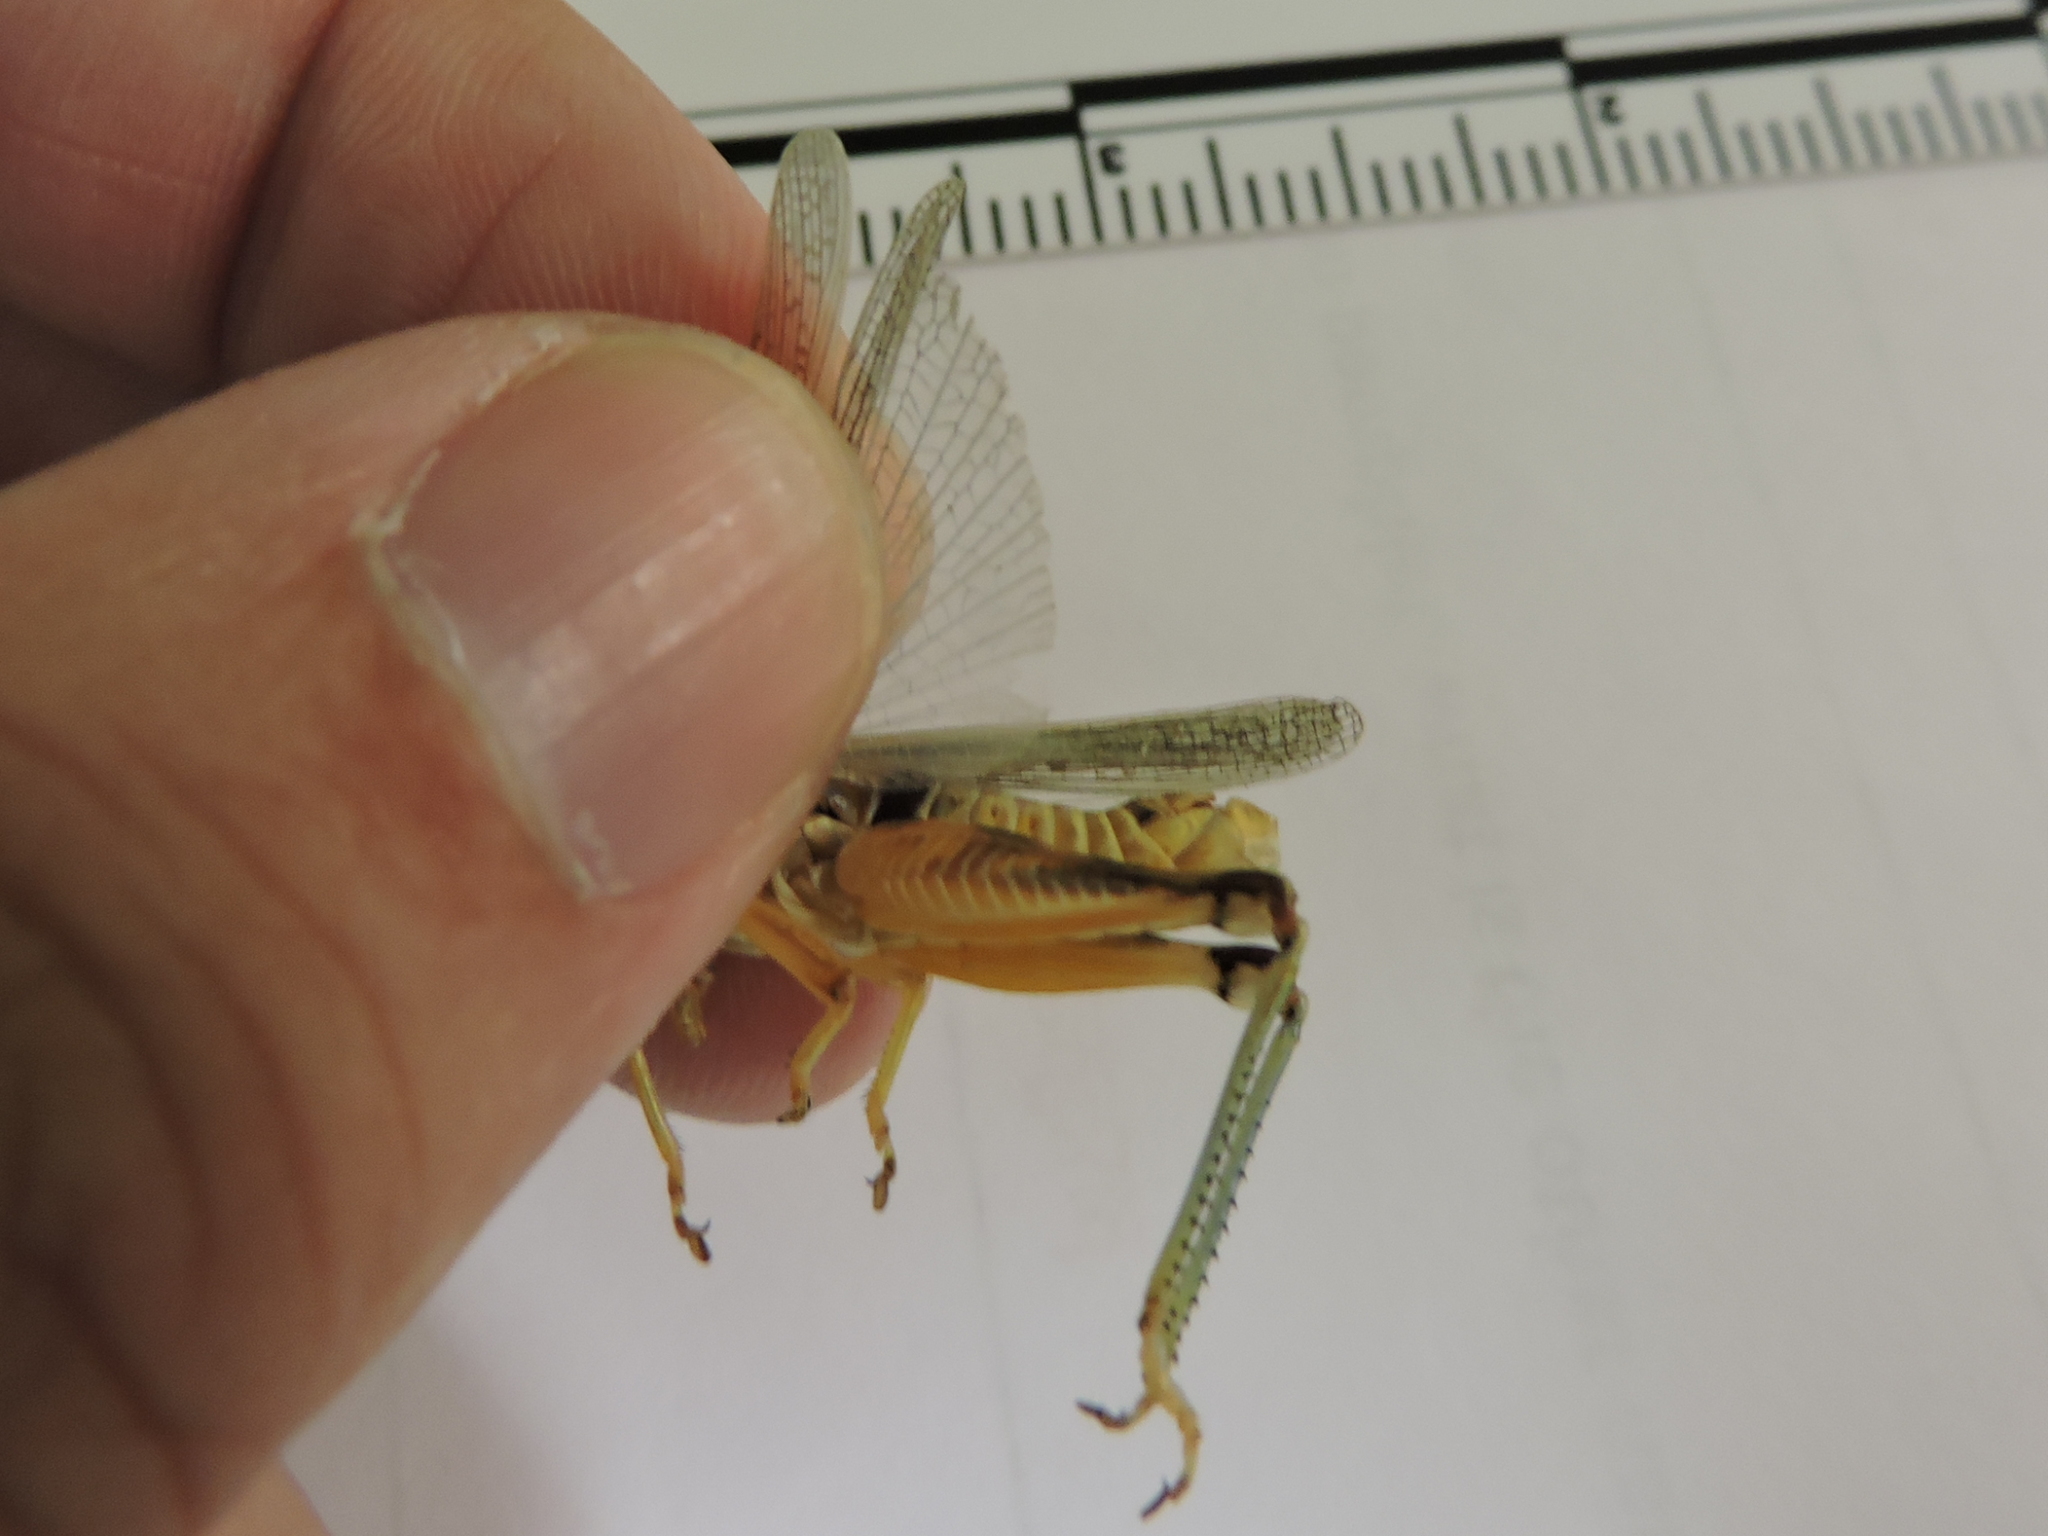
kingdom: Animalia
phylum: Arthropoda
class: Insecta
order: Orthoptera
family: Acrididae
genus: Melanoplus
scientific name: Melanoplus femurrubrum
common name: Red-legged grasshopper
